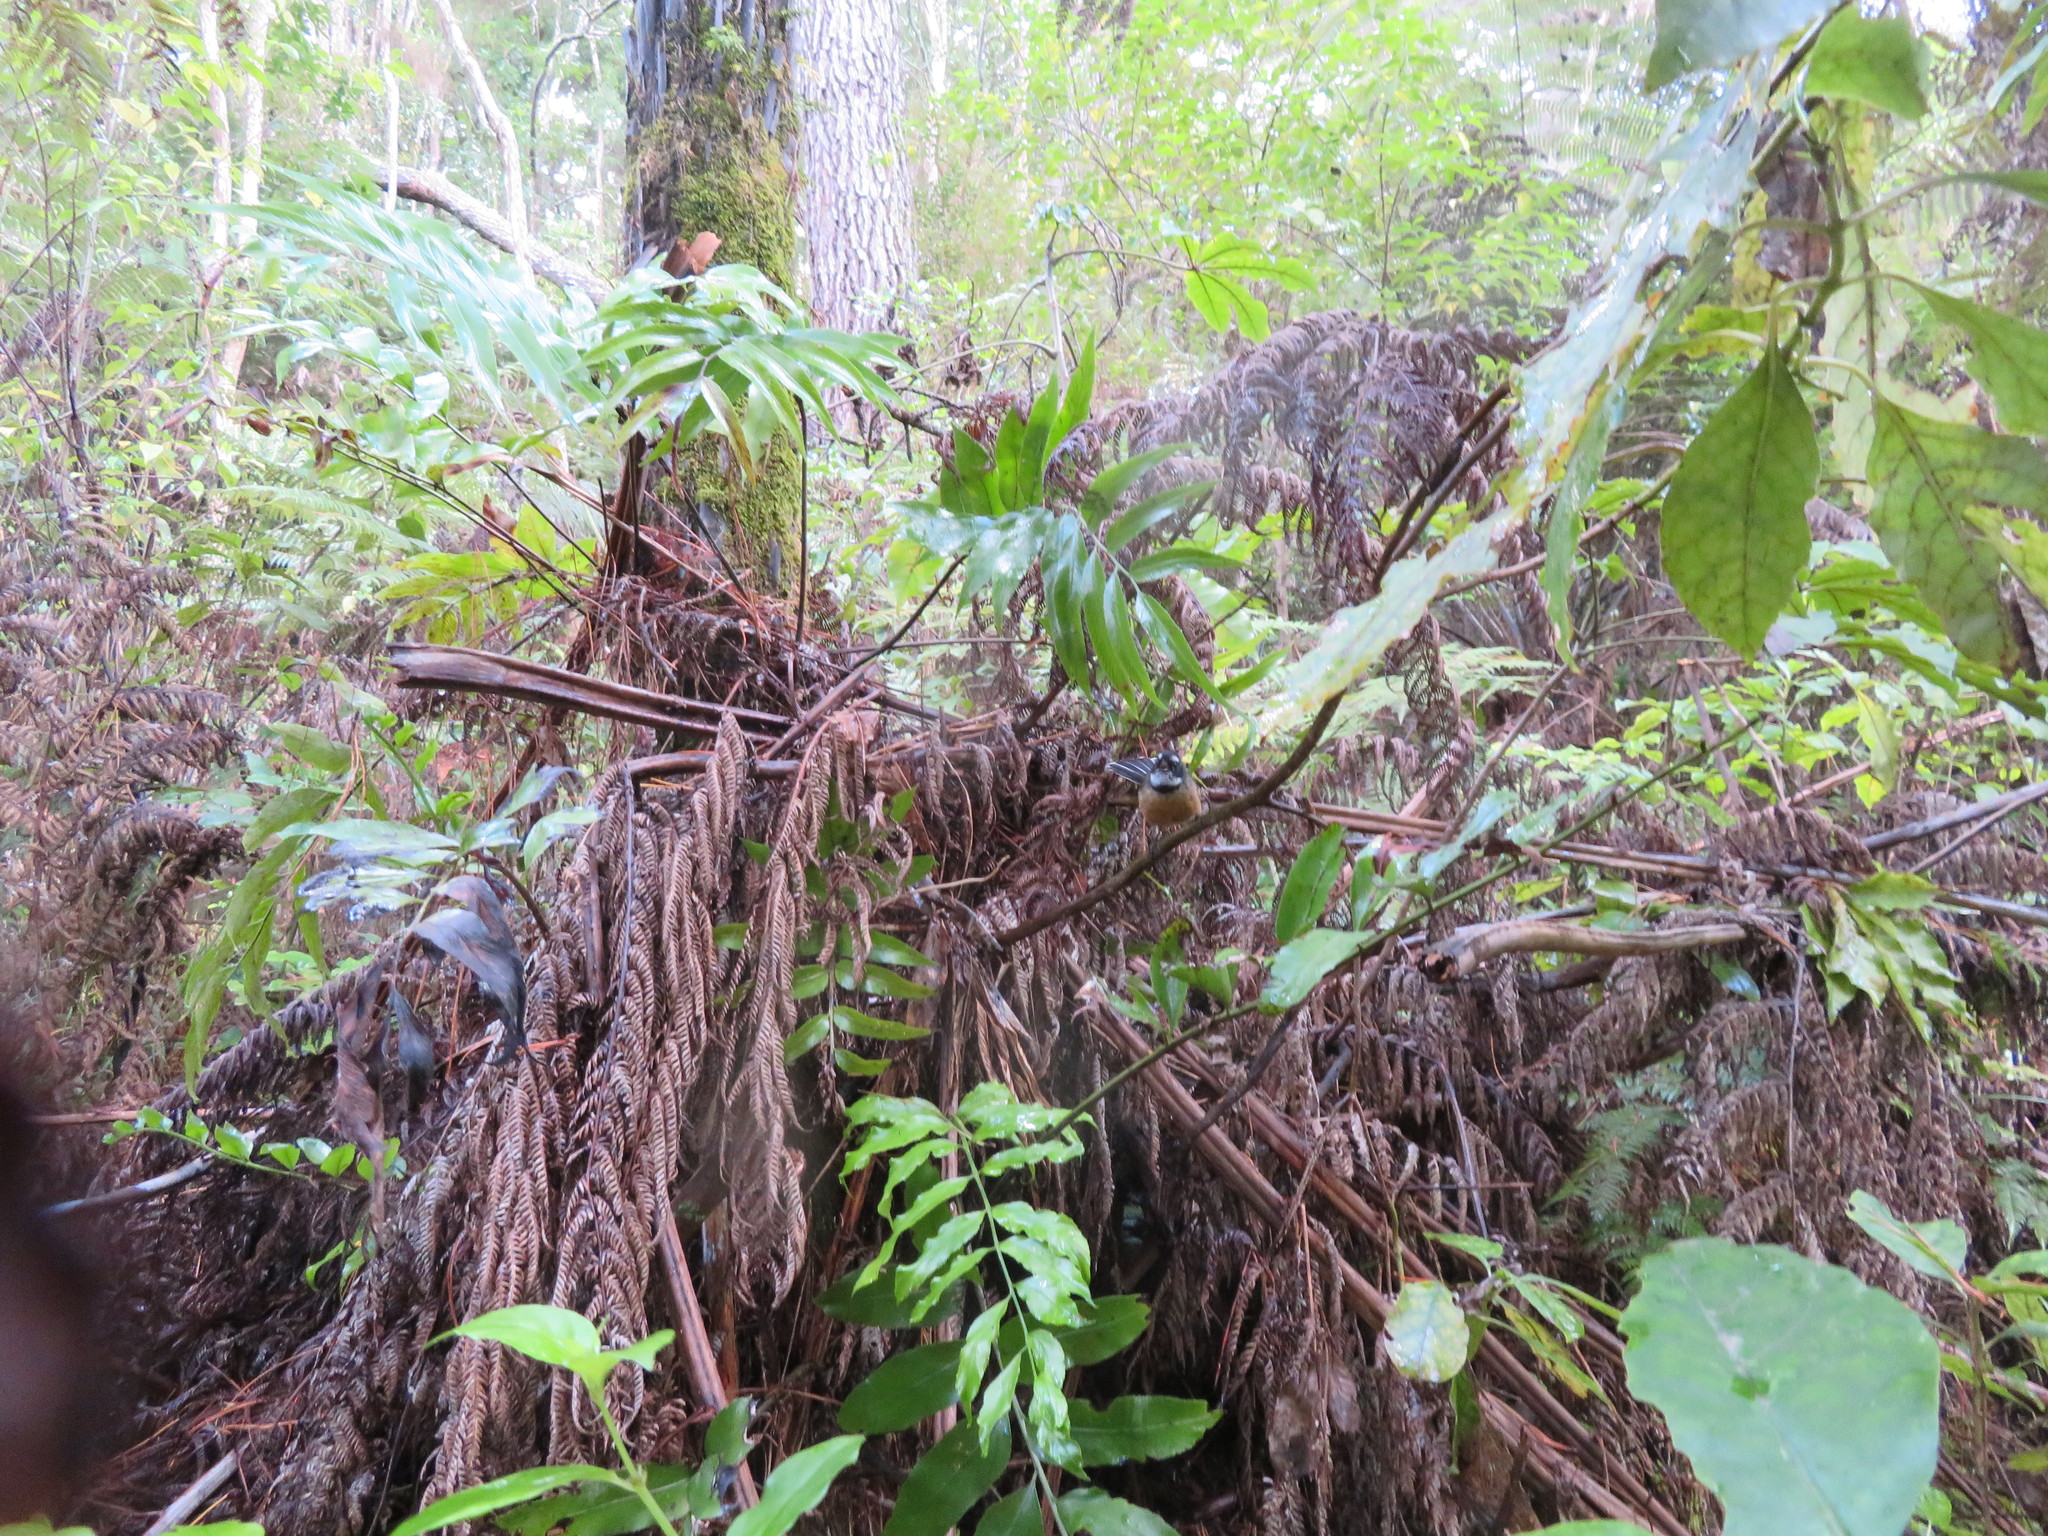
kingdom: Plantae
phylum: Tracheophyta
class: Polypodiopsida
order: Polypodiales
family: Aspleniaceae
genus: Asplenium
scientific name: Asplenium oblongifolium
